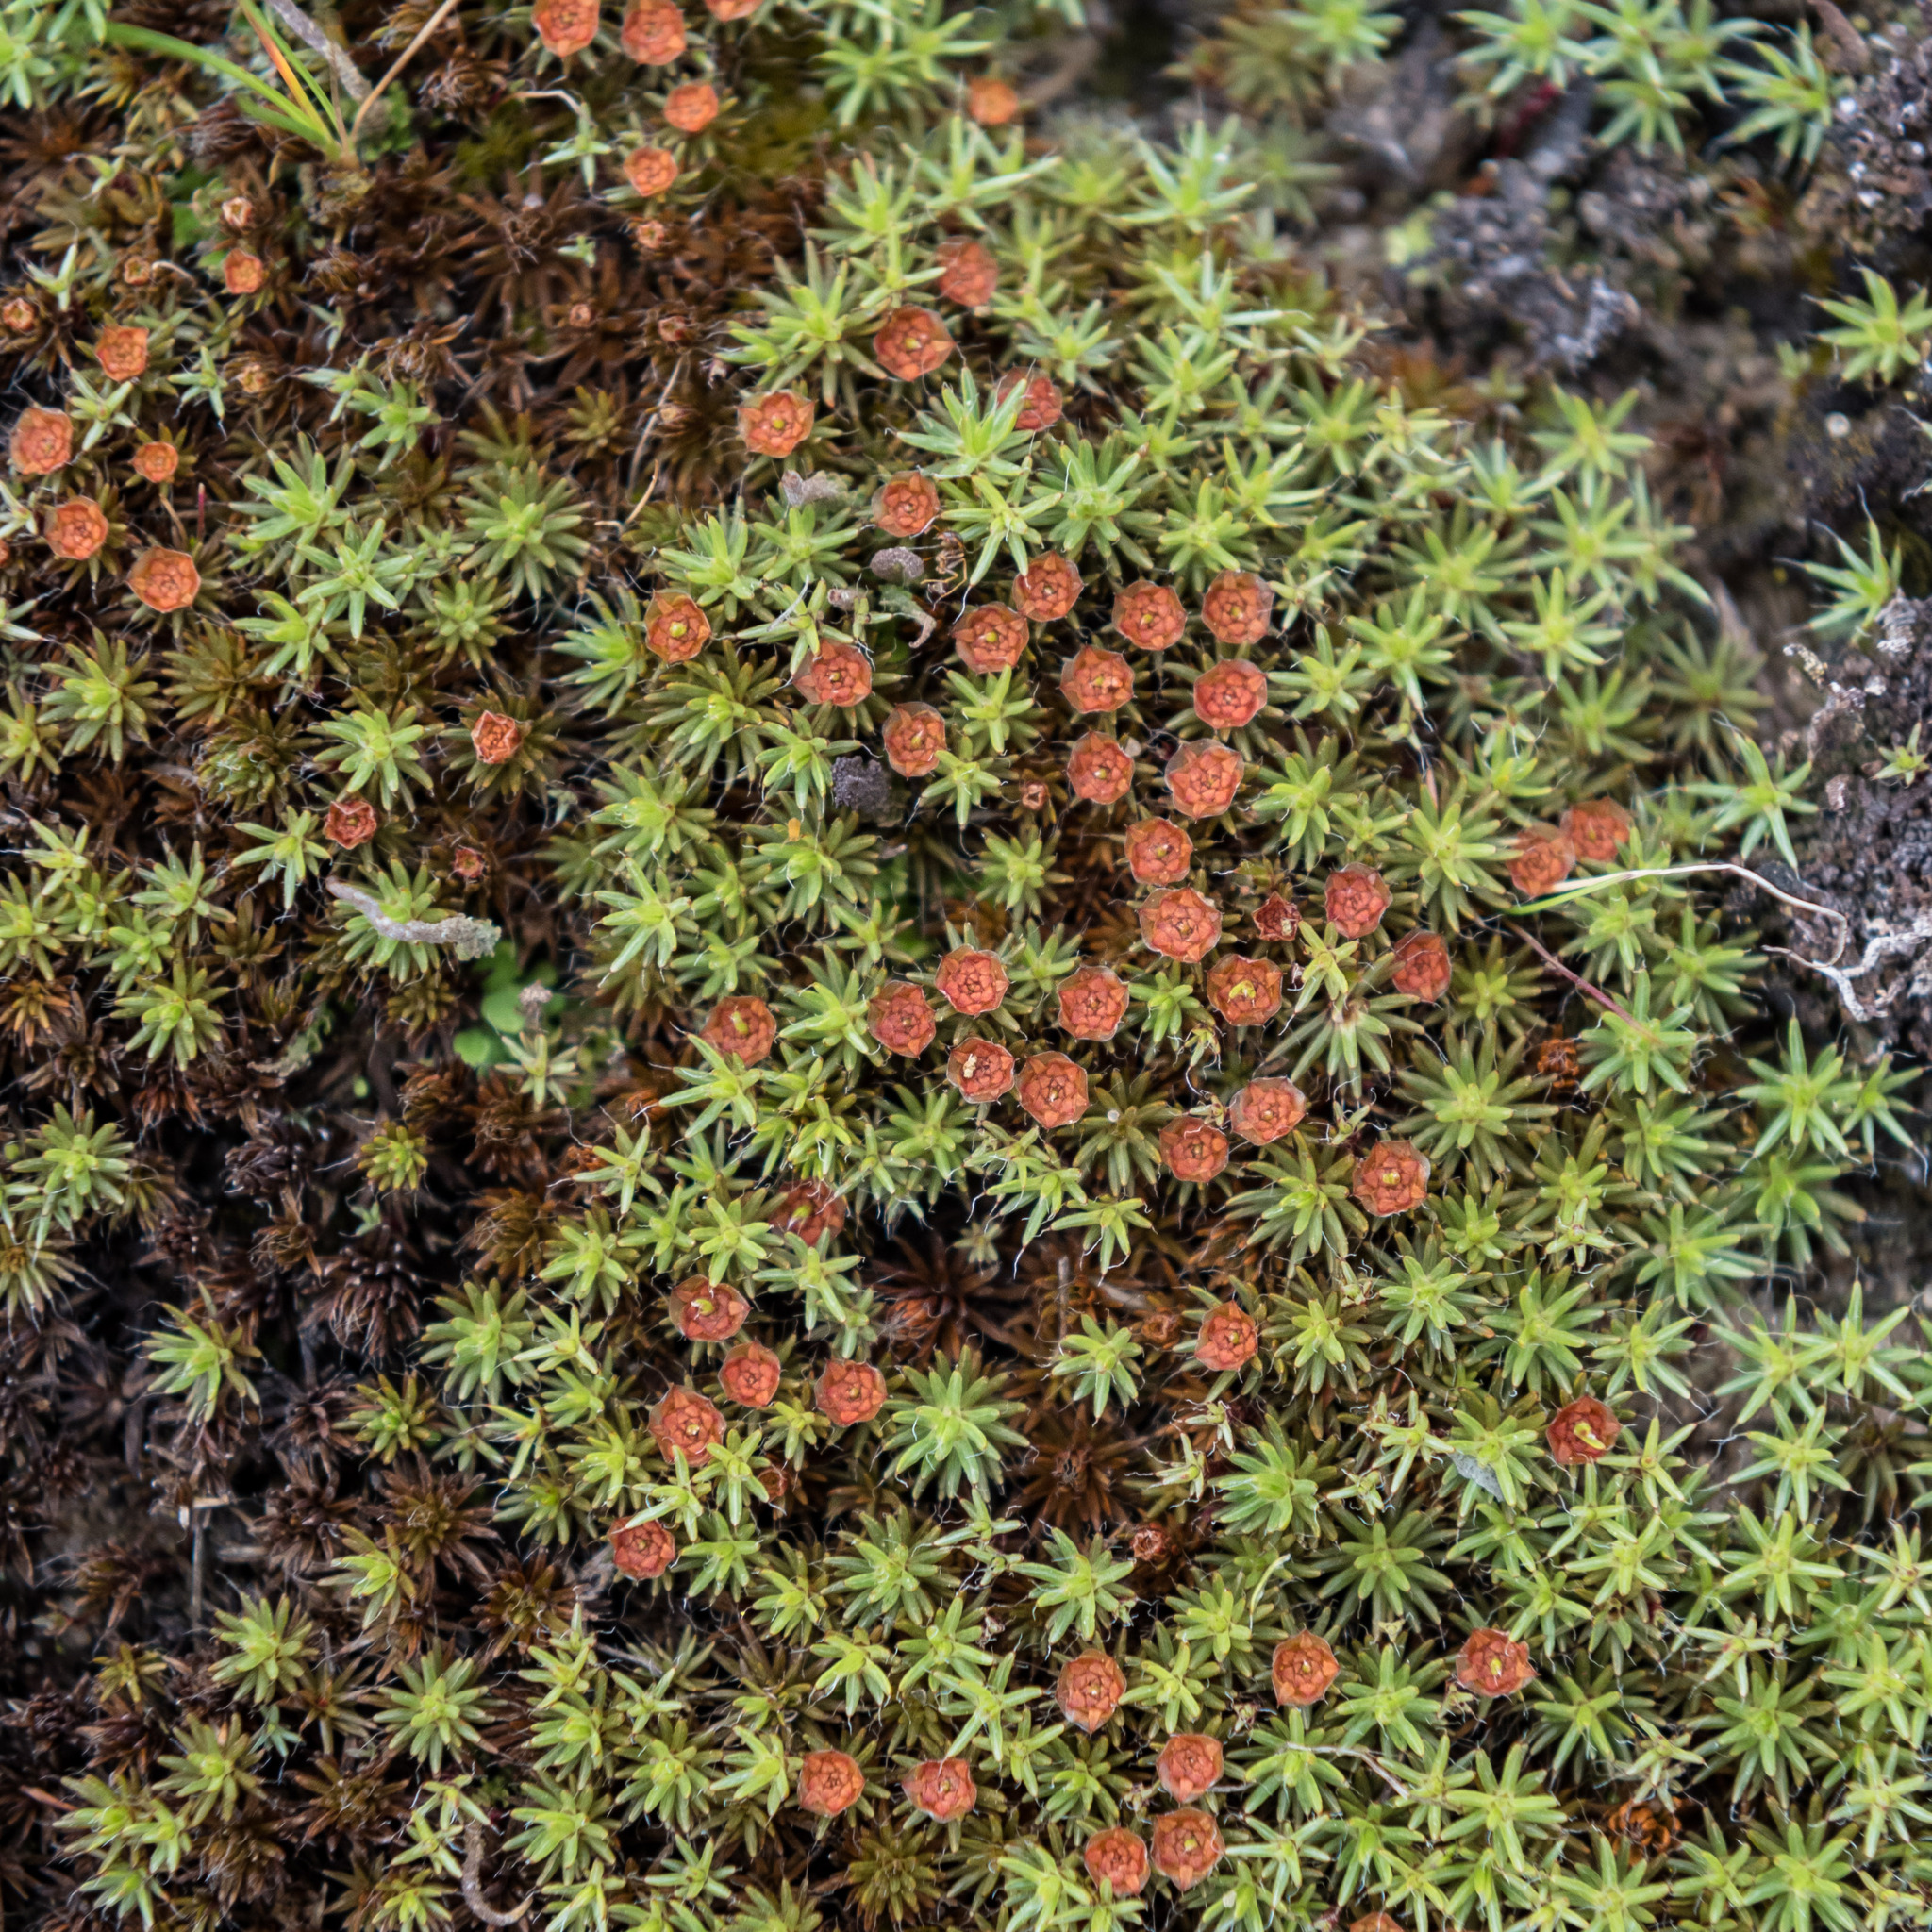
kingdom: Plantae
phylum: Bryophyta
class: Polytrichopsida
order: Polytrichales
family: Polytrichaceae
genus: Polytrichum
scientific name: Polytrichum piliferum
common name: Bristly haircap
